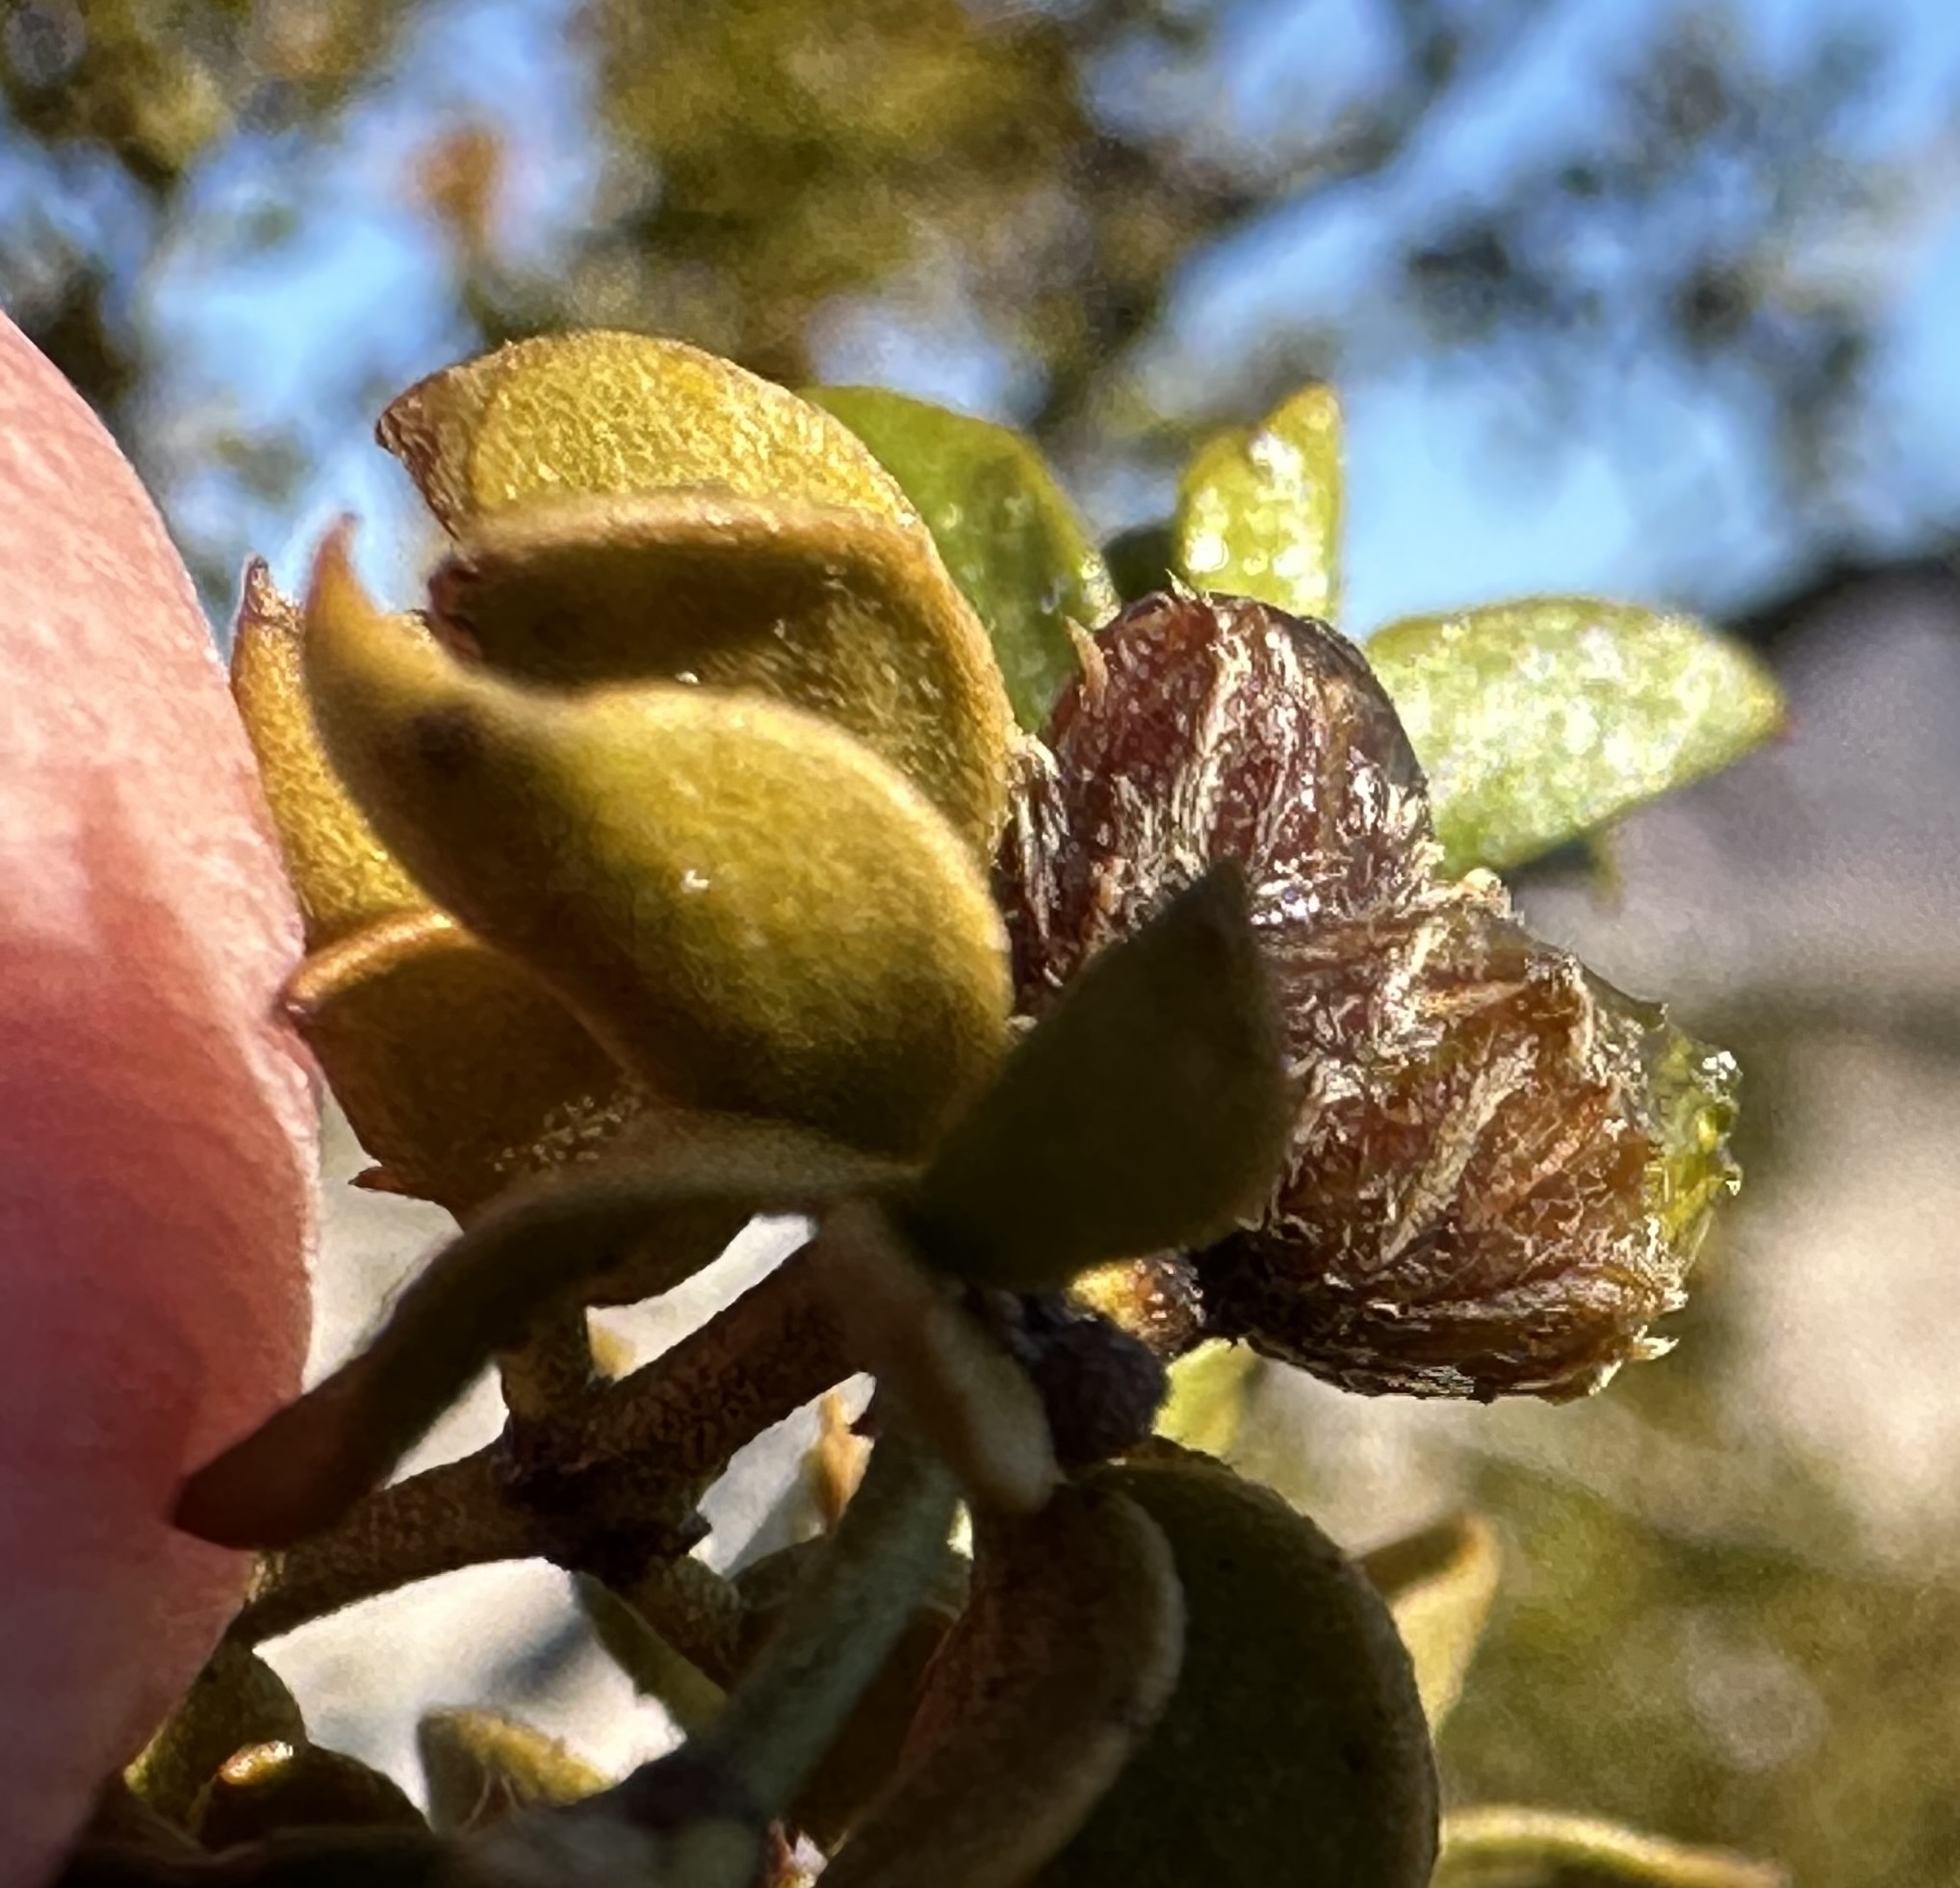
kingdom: Animalia
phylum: Arthropoda
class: Insecta
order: Diptera
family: Cecidomyiidae
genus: Asphondylia
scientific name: Asphondylia resinosa
